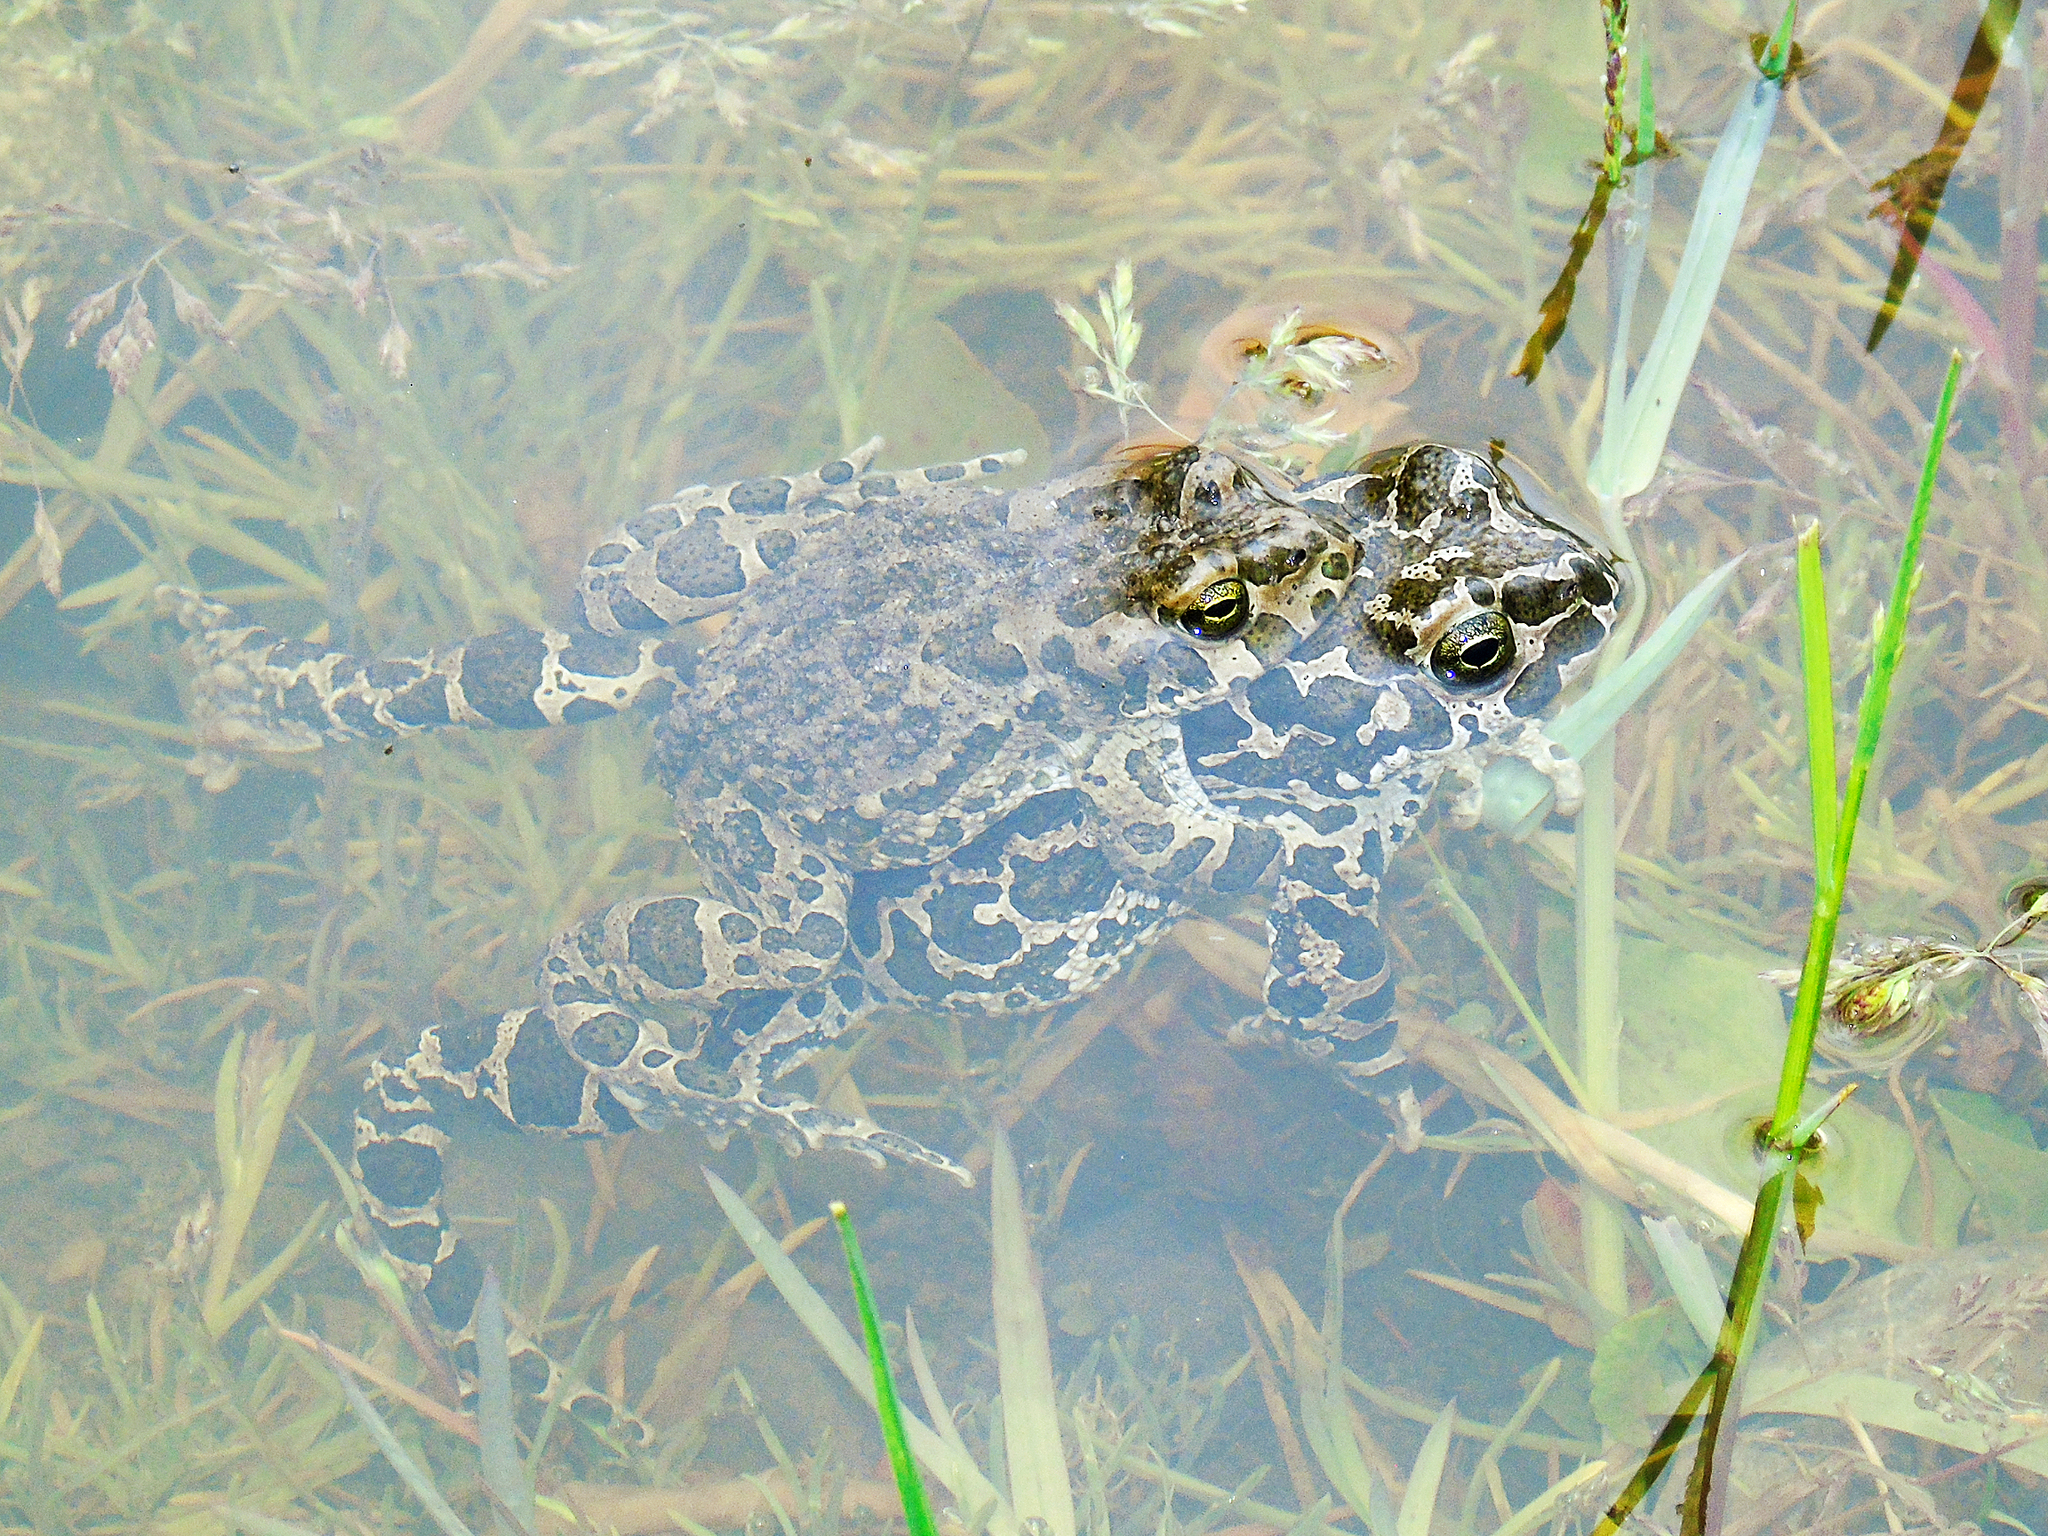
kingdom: Animalia
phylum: Chordata
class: Amphibia
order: Anura
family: Bufonidae
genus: Bufotes
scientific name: Bufotes viridis
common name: European green toad
